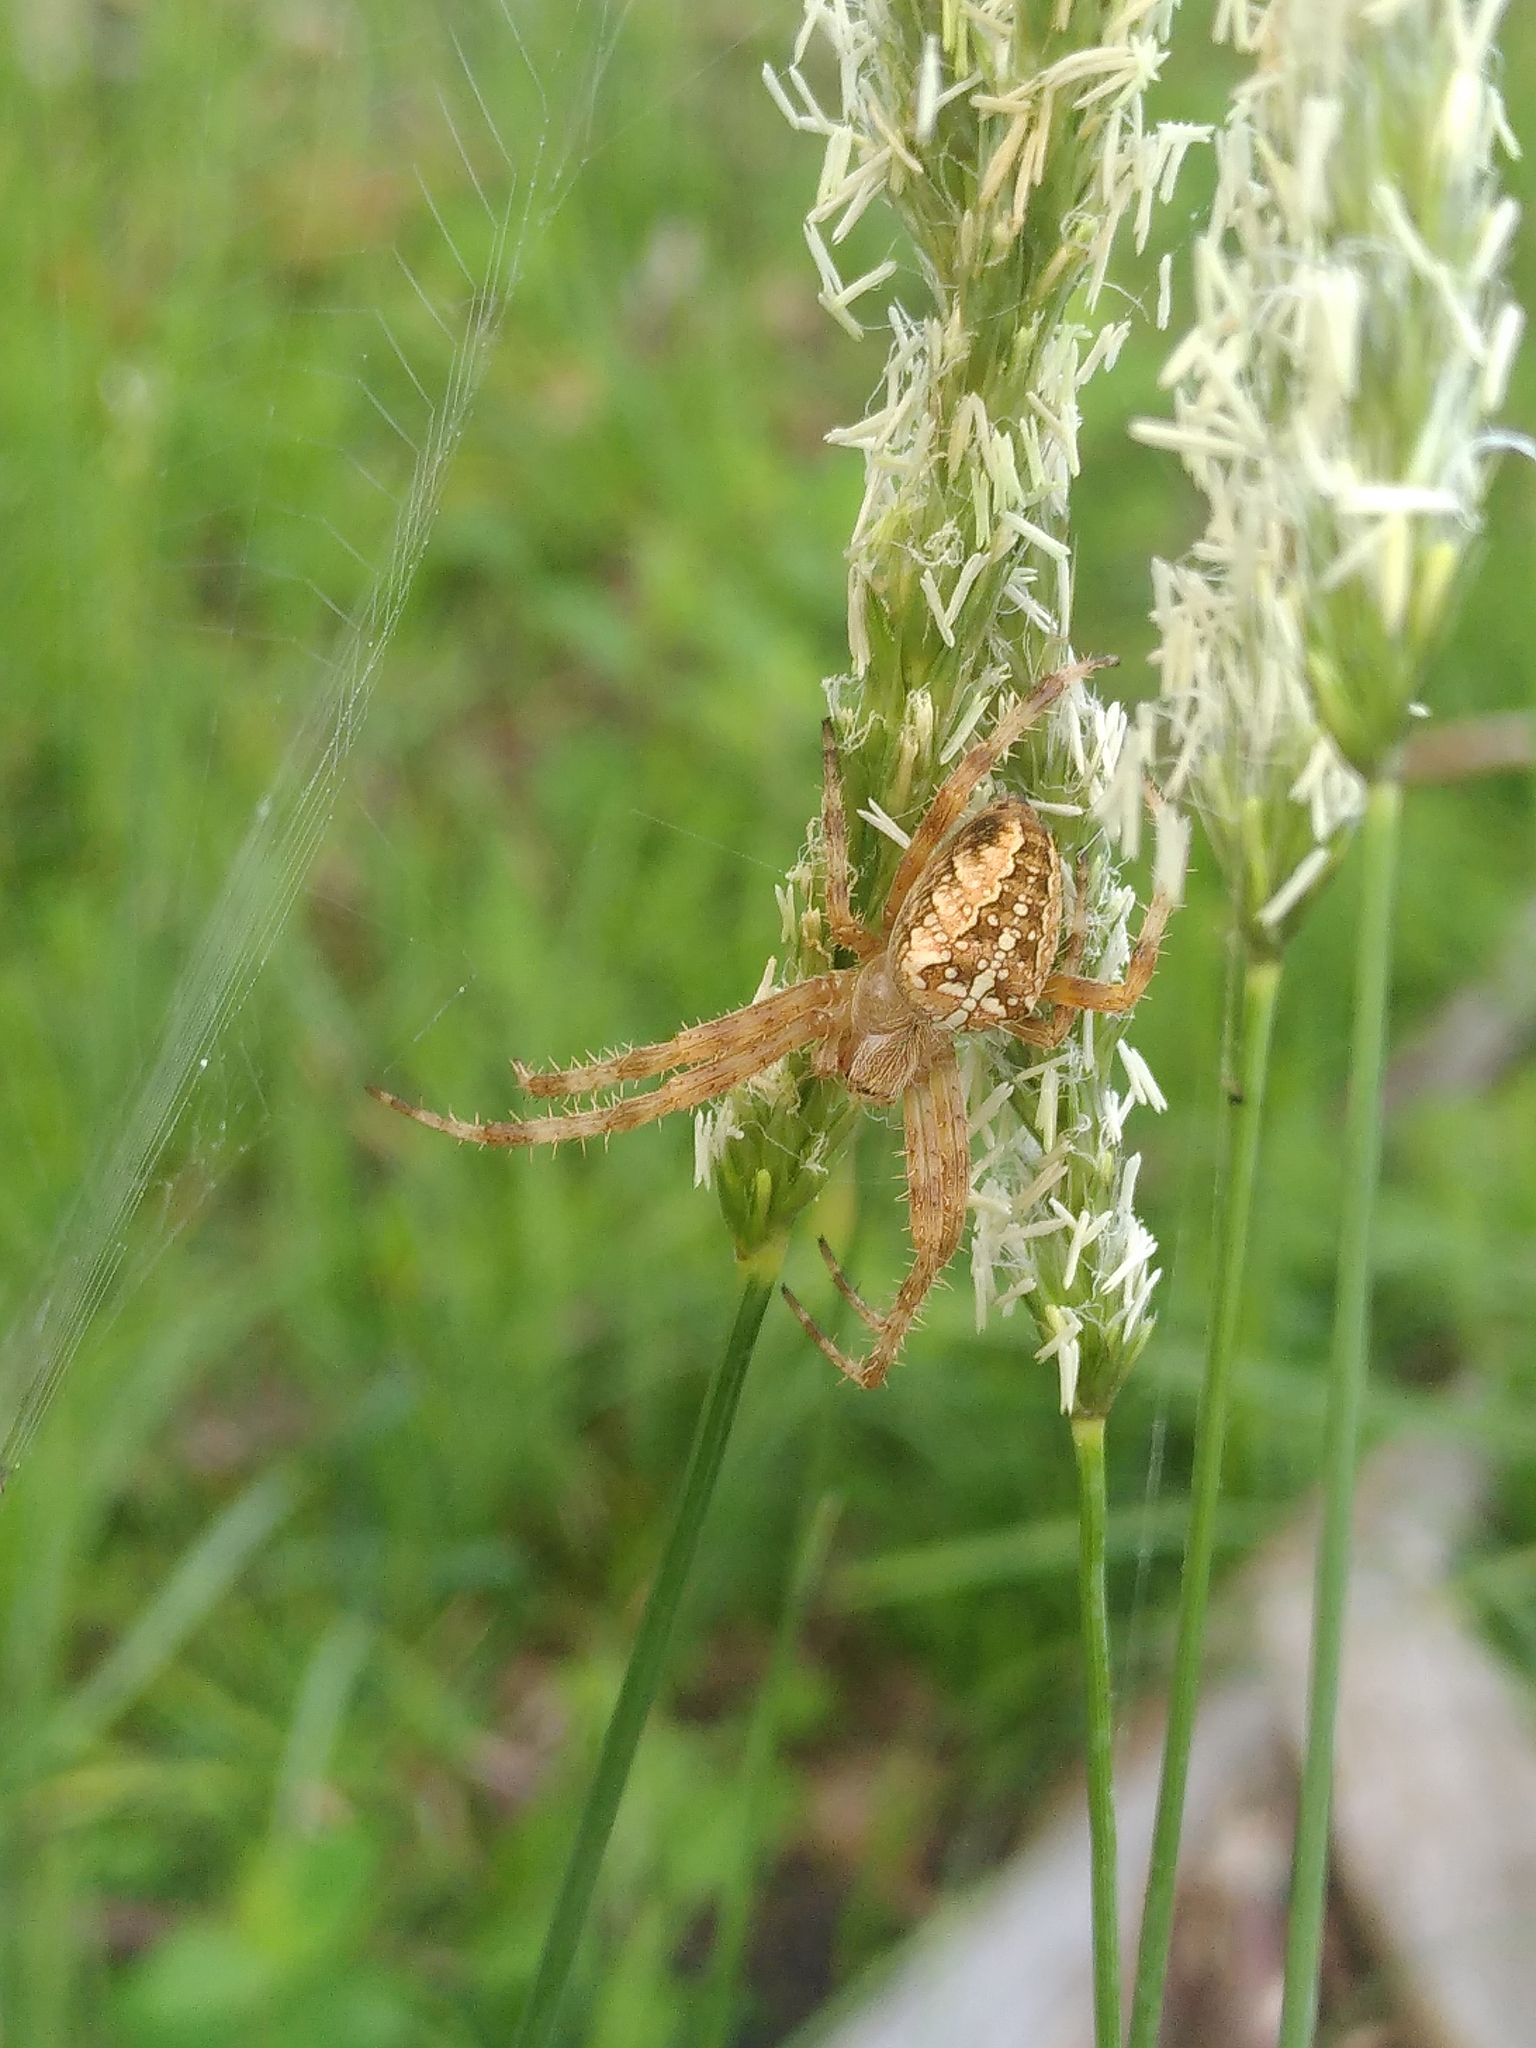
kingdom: Animalia
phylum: Arthropoda
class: Arachnida
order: Araneae
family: Araneidae
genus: Araneus
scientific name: Araneus diadematus
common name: Cross orbweaver
